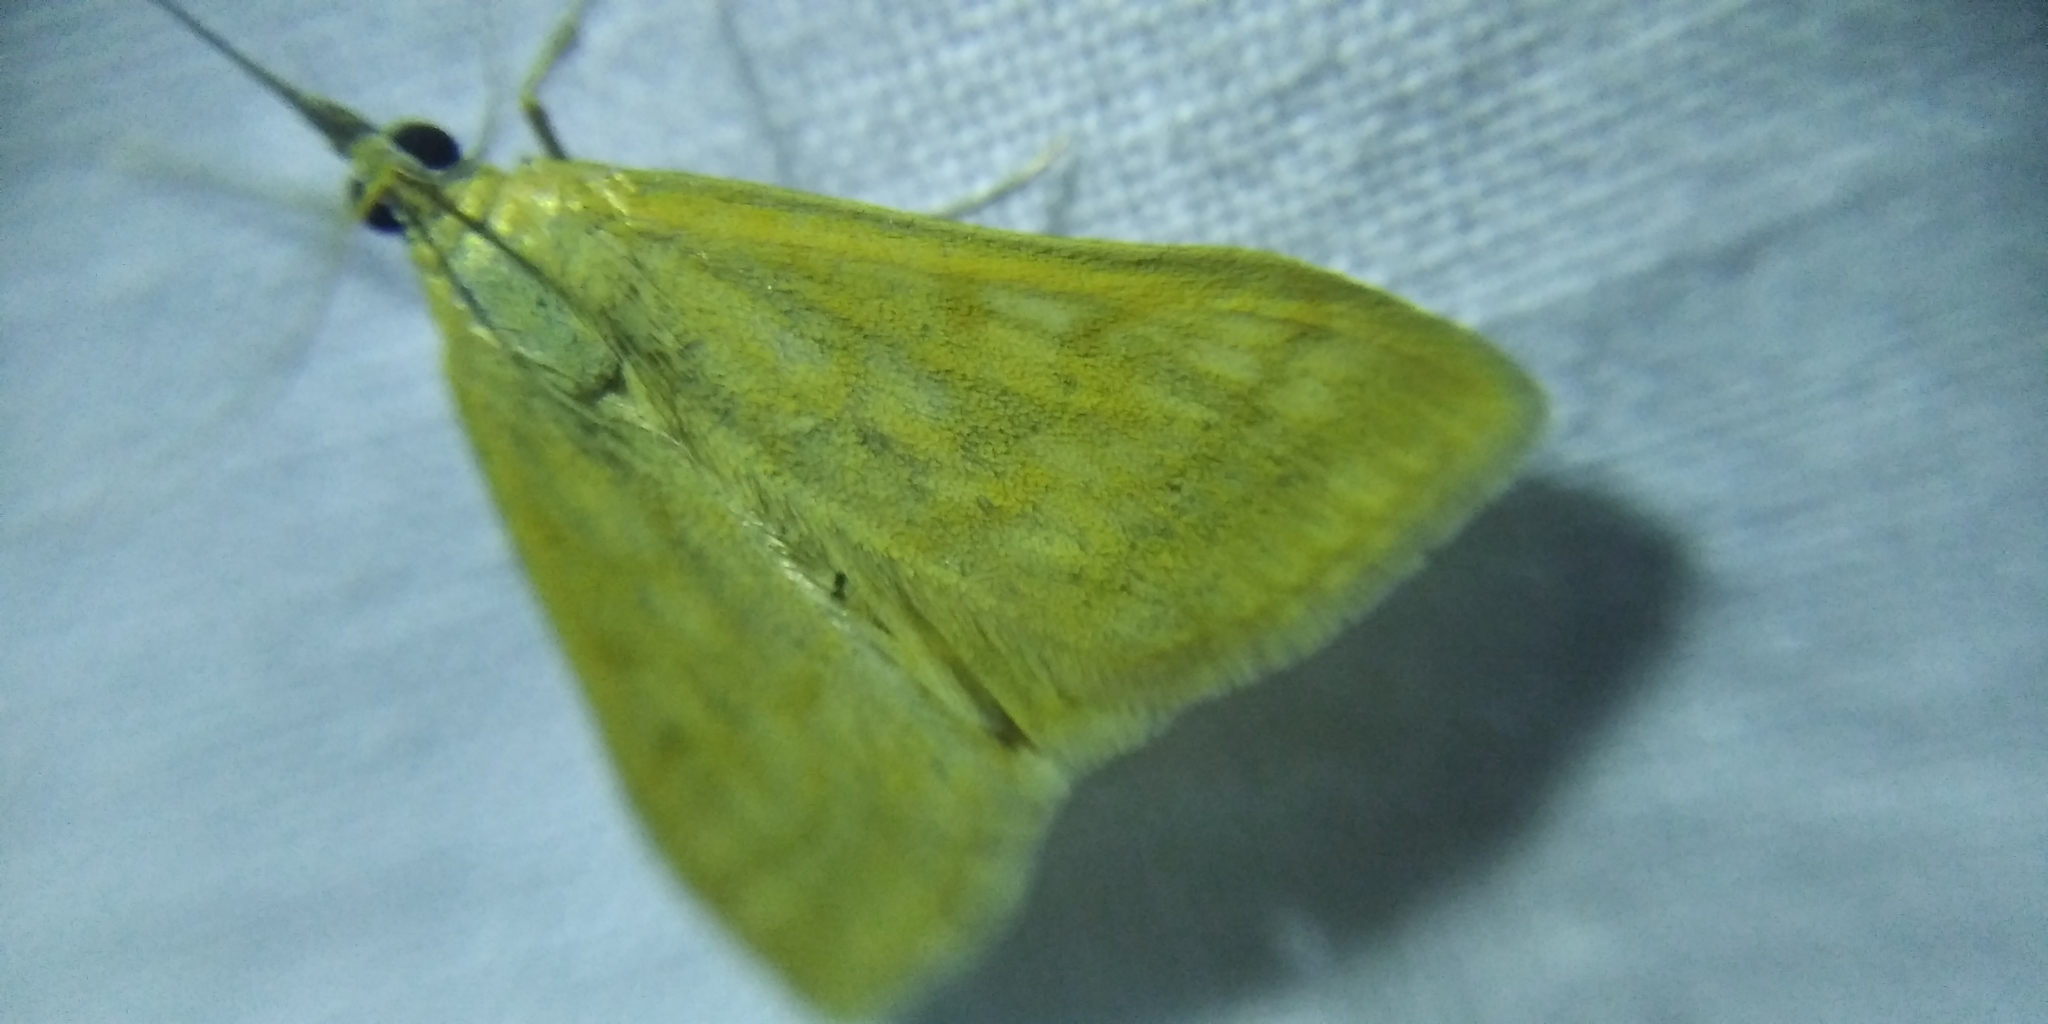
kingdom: Animalia
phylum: Arthropoda
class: Insecta
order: Lepidoptera
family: Crambidae
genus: Sitochroa
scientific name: Sitochroa verticalis
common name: Lesser pearl
